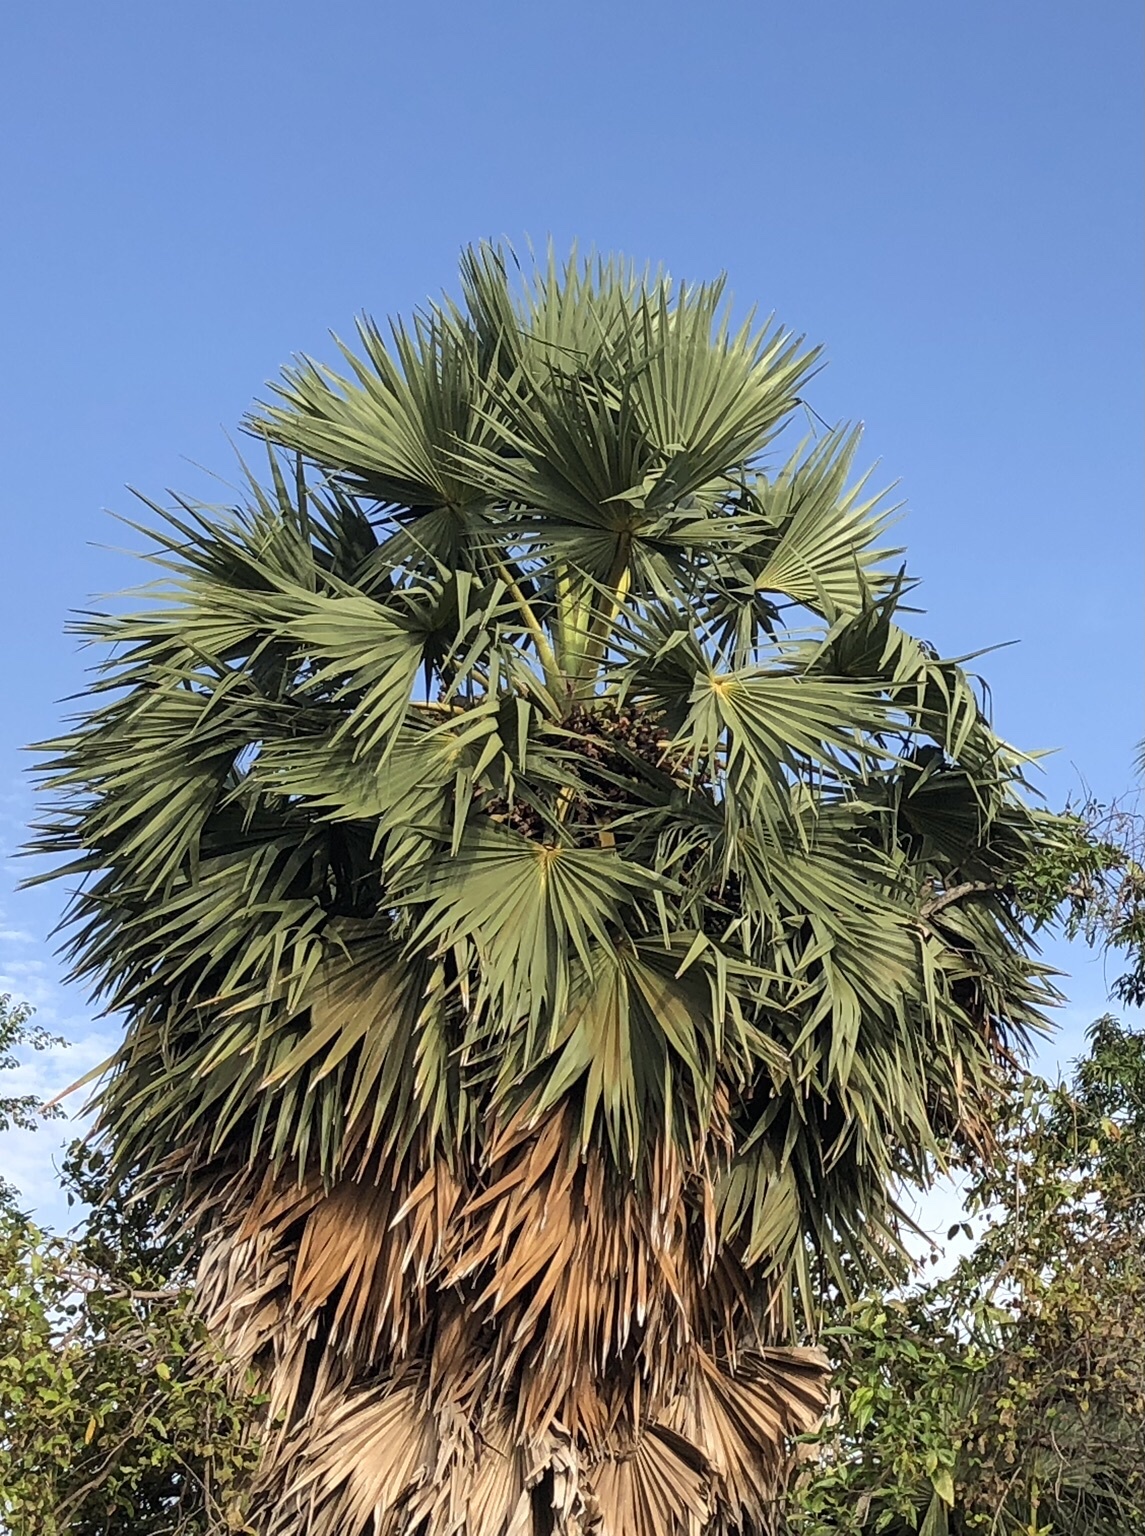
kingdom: Plantae
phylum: Tracheophyta
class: Liliopsida
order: Arecales
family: Arecaceae
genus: Borassus
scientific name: Borassus flabellifer
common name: Palmyra palm
